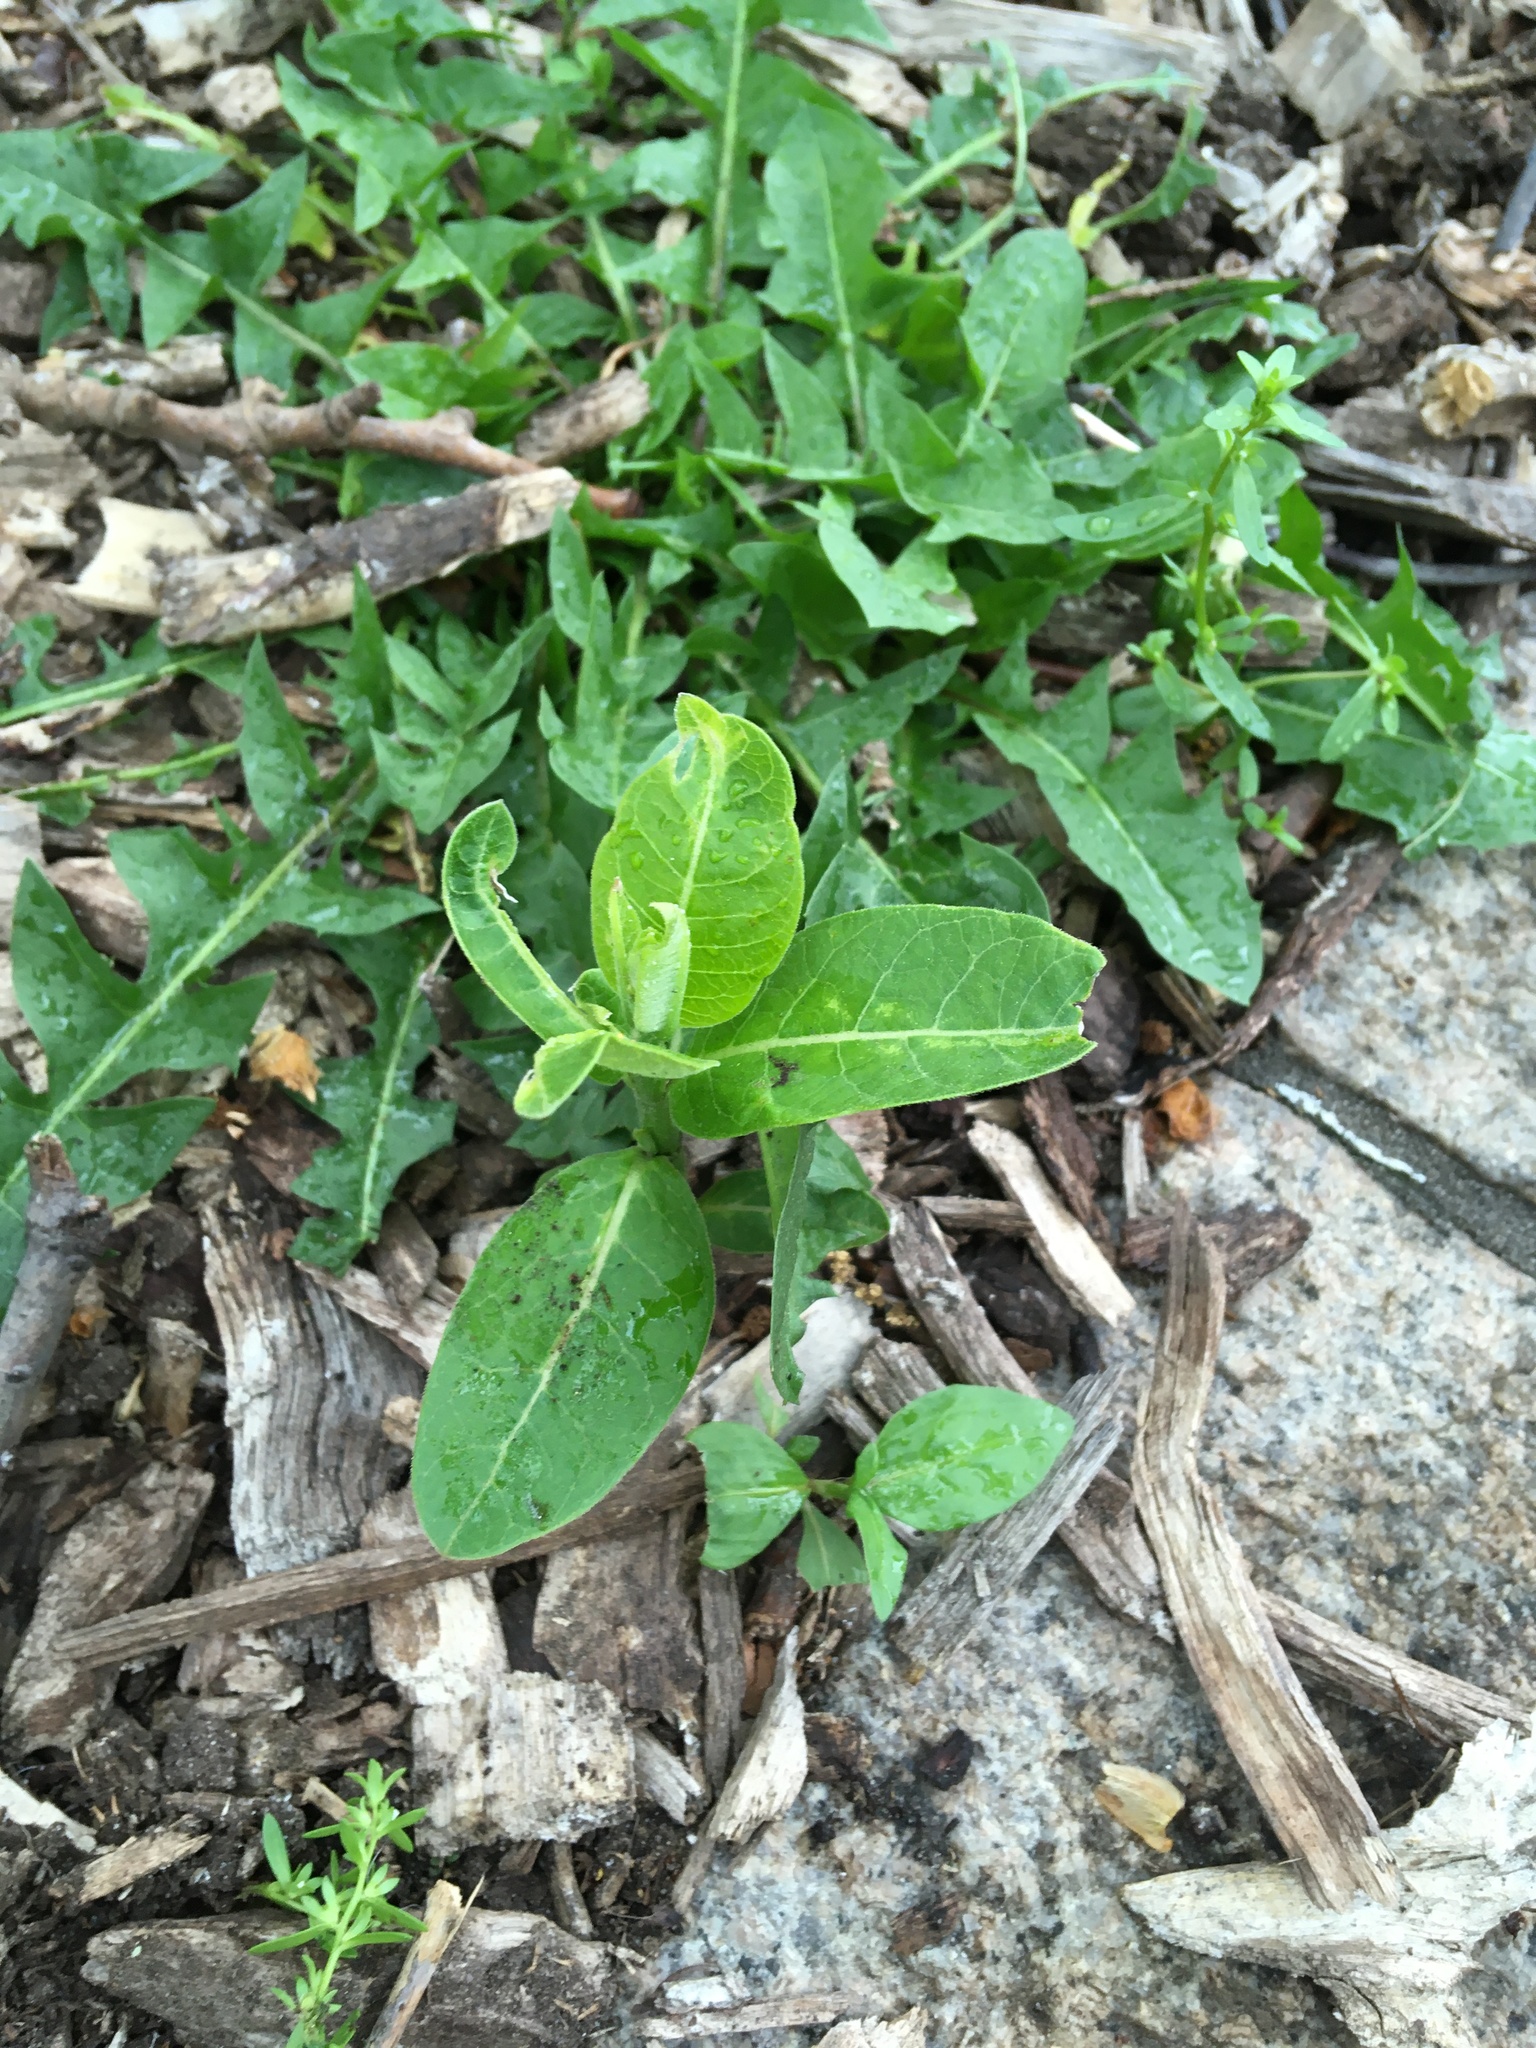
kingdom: Plantae
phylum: Tracheophyta
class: Magnoliopsida
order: Gentianales
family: Apocynaceae
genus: Asclepias
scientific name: Asclepias syriaca
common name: Common milkweed
